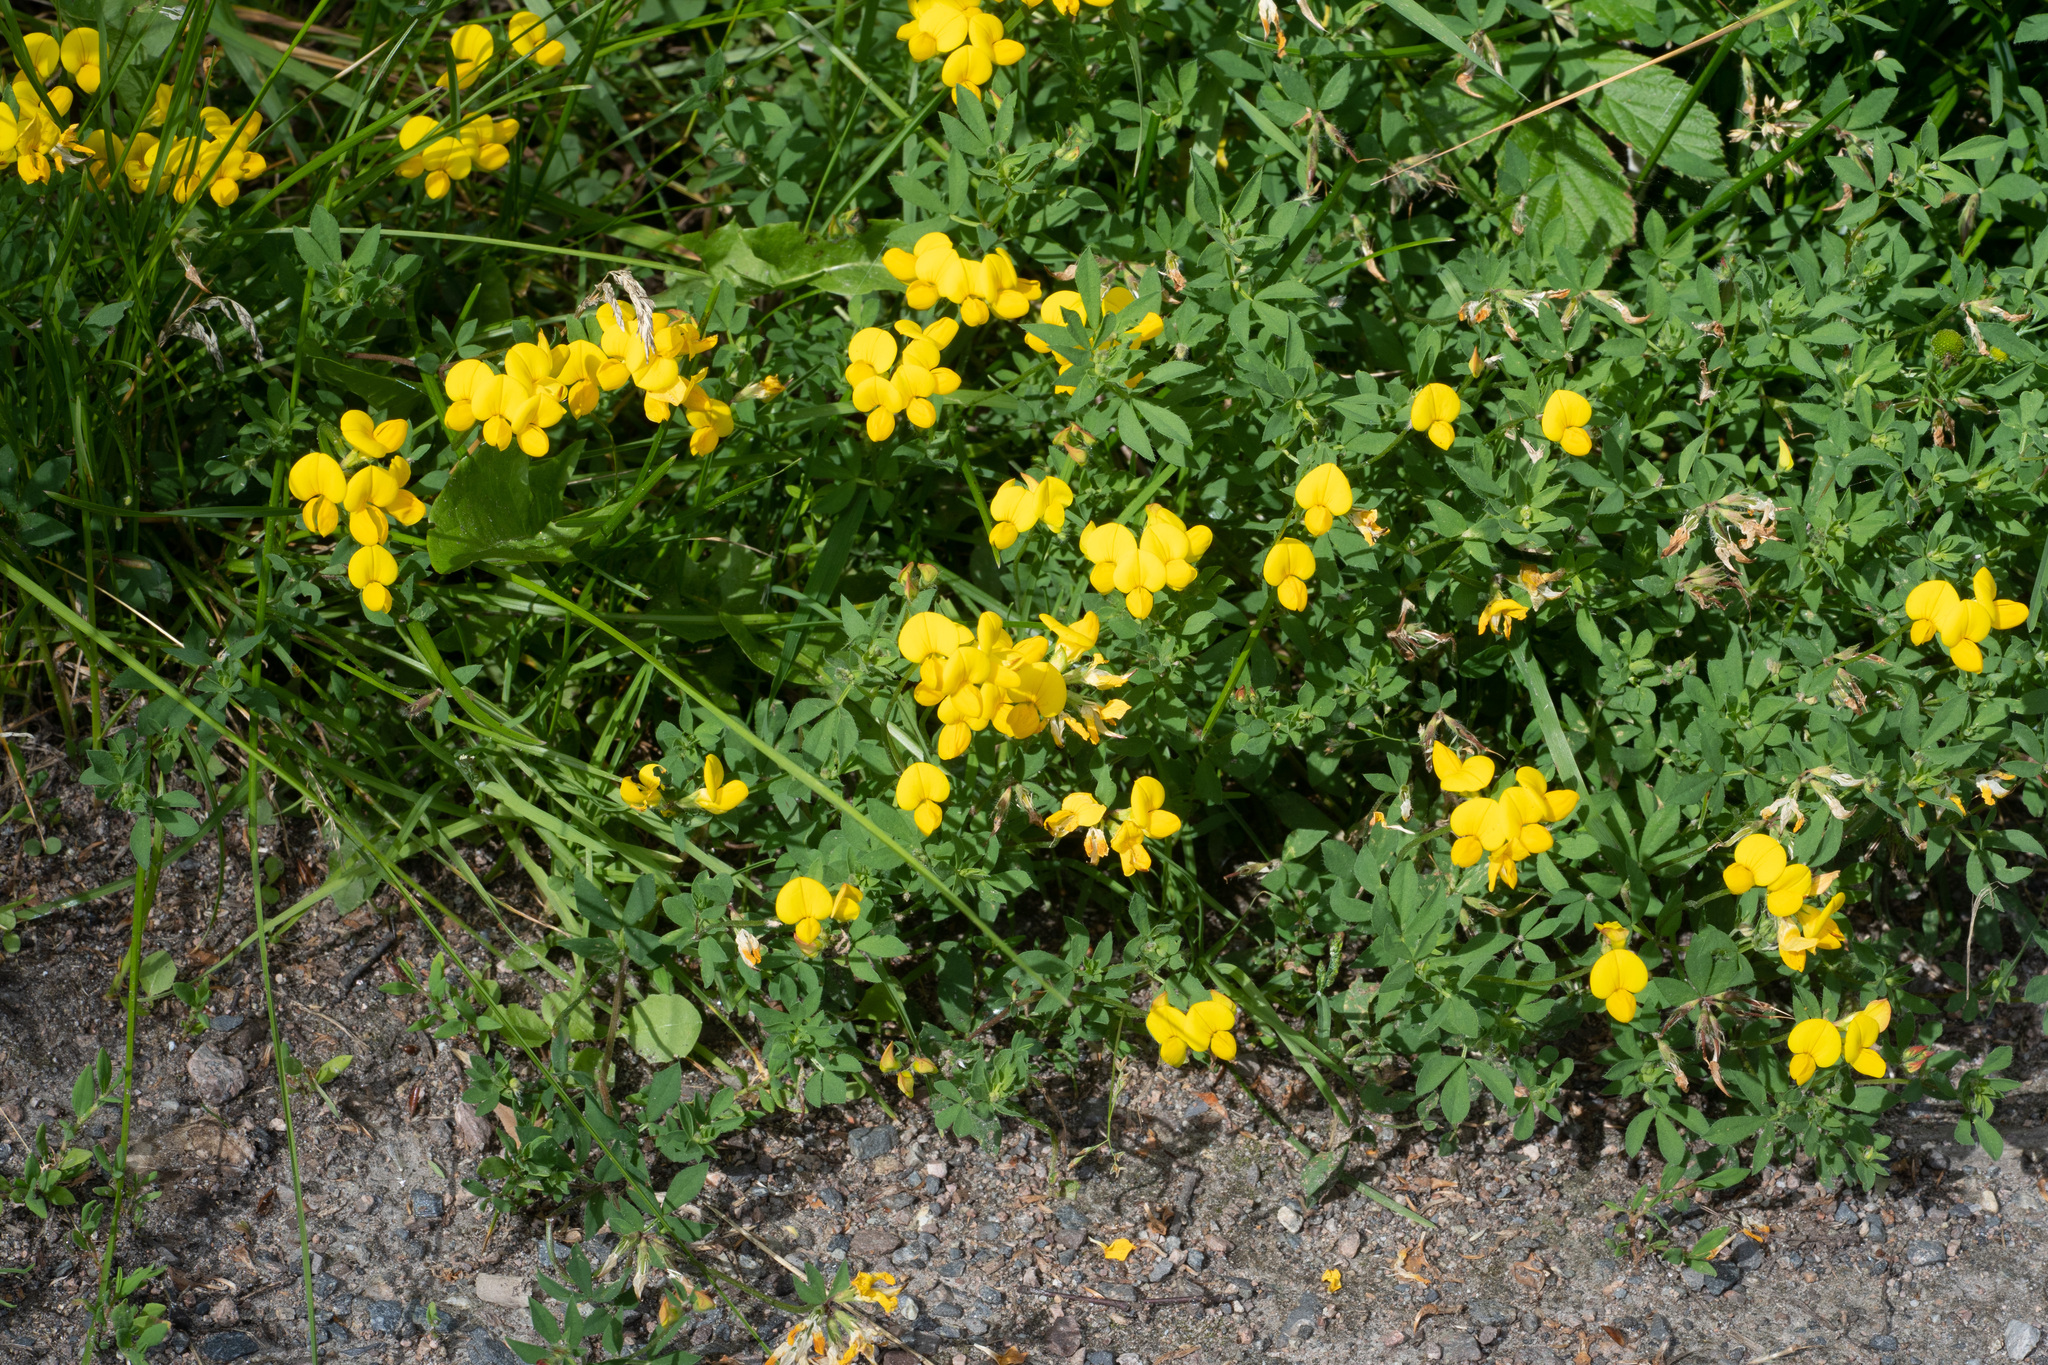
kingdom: Plantae
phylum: Tracheophyta
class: Magnoliopsida
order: Fabales
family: Fabaceae
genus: Lotus
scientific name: Lotus corniculatus
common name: Common bird's-foot-trefoil
